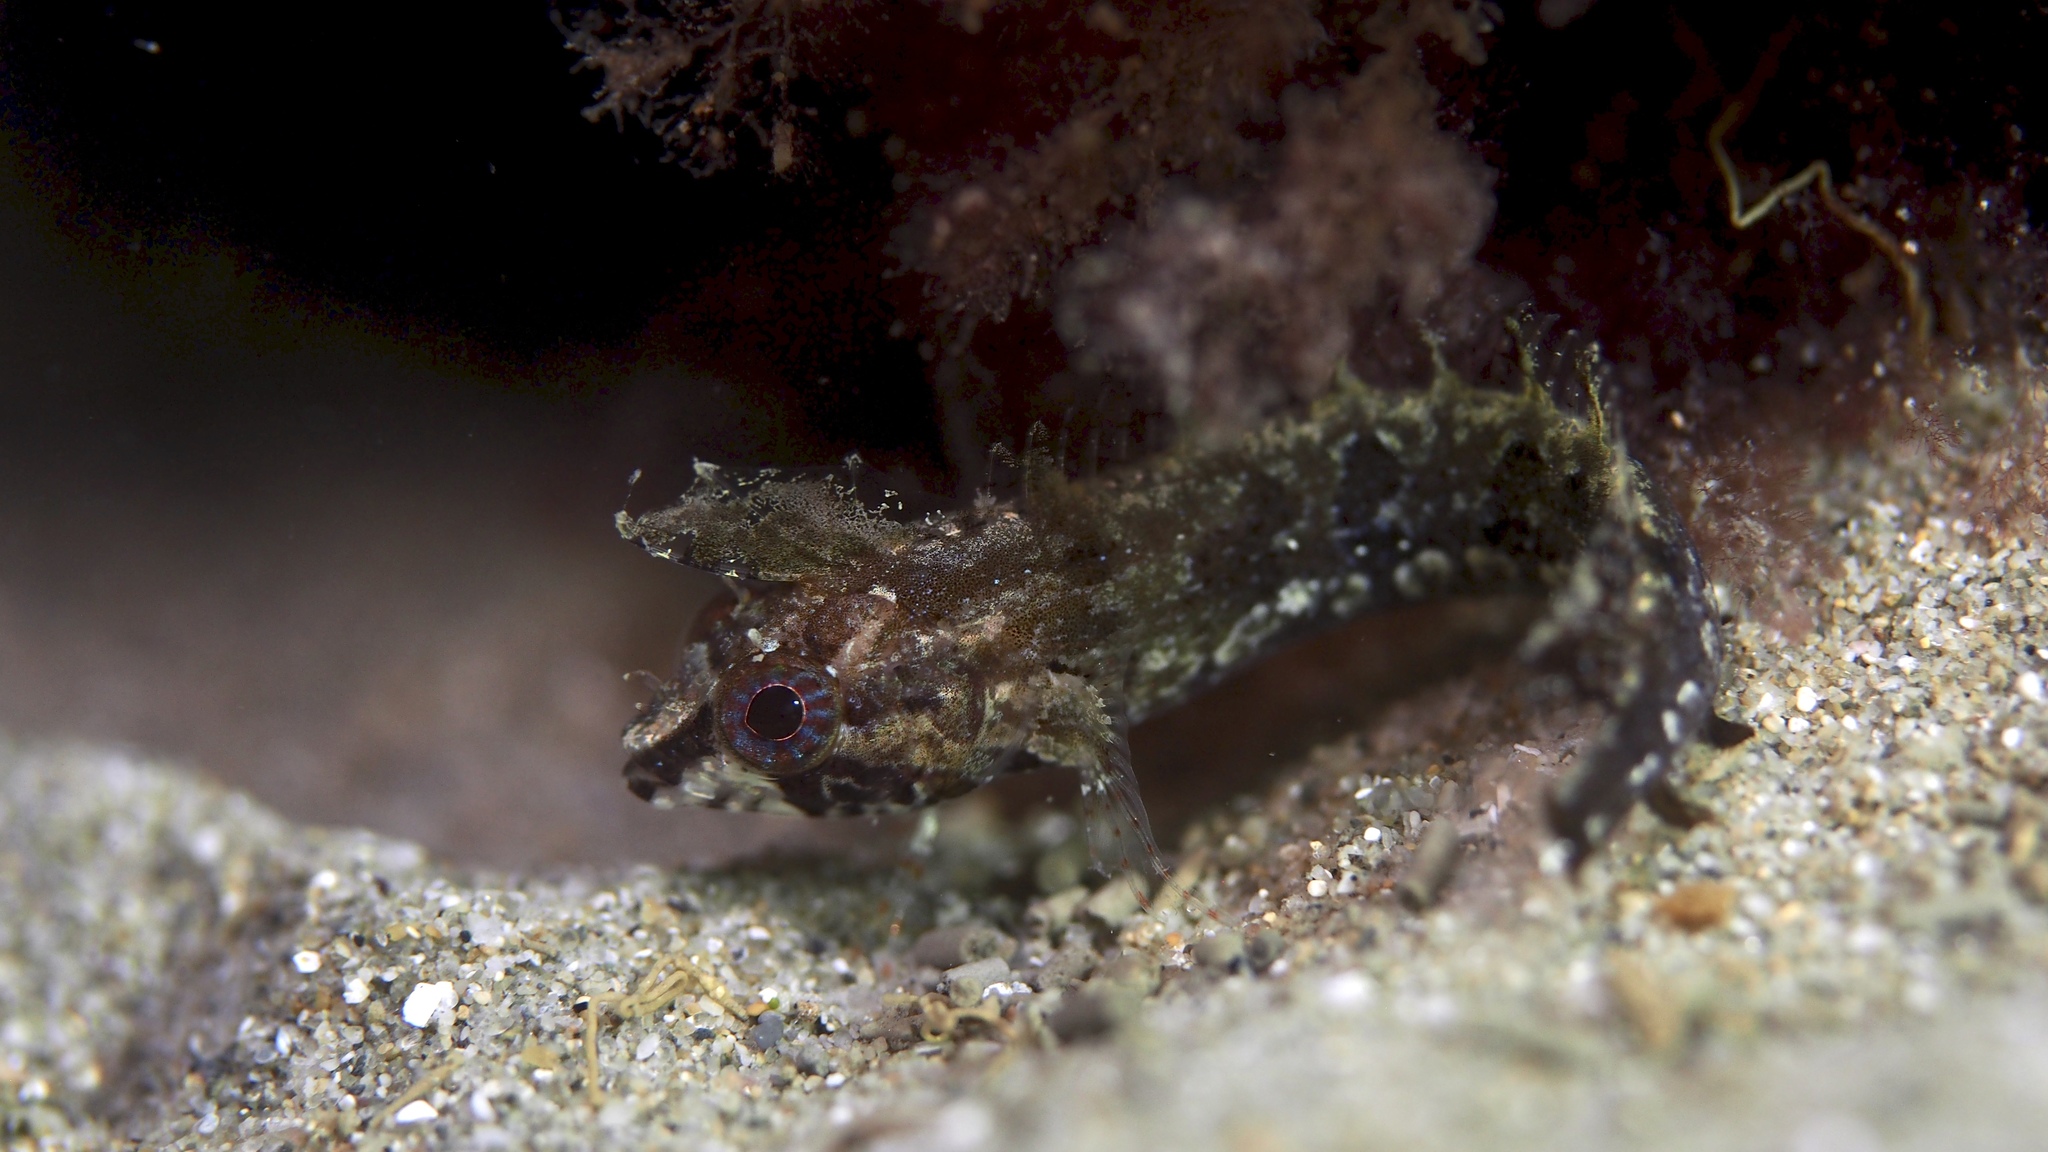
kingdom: Animalia
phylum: Chordata
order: Perciformes
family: Clinidae
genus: Heteroclinus
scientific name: Heteroclinus kuiteri
